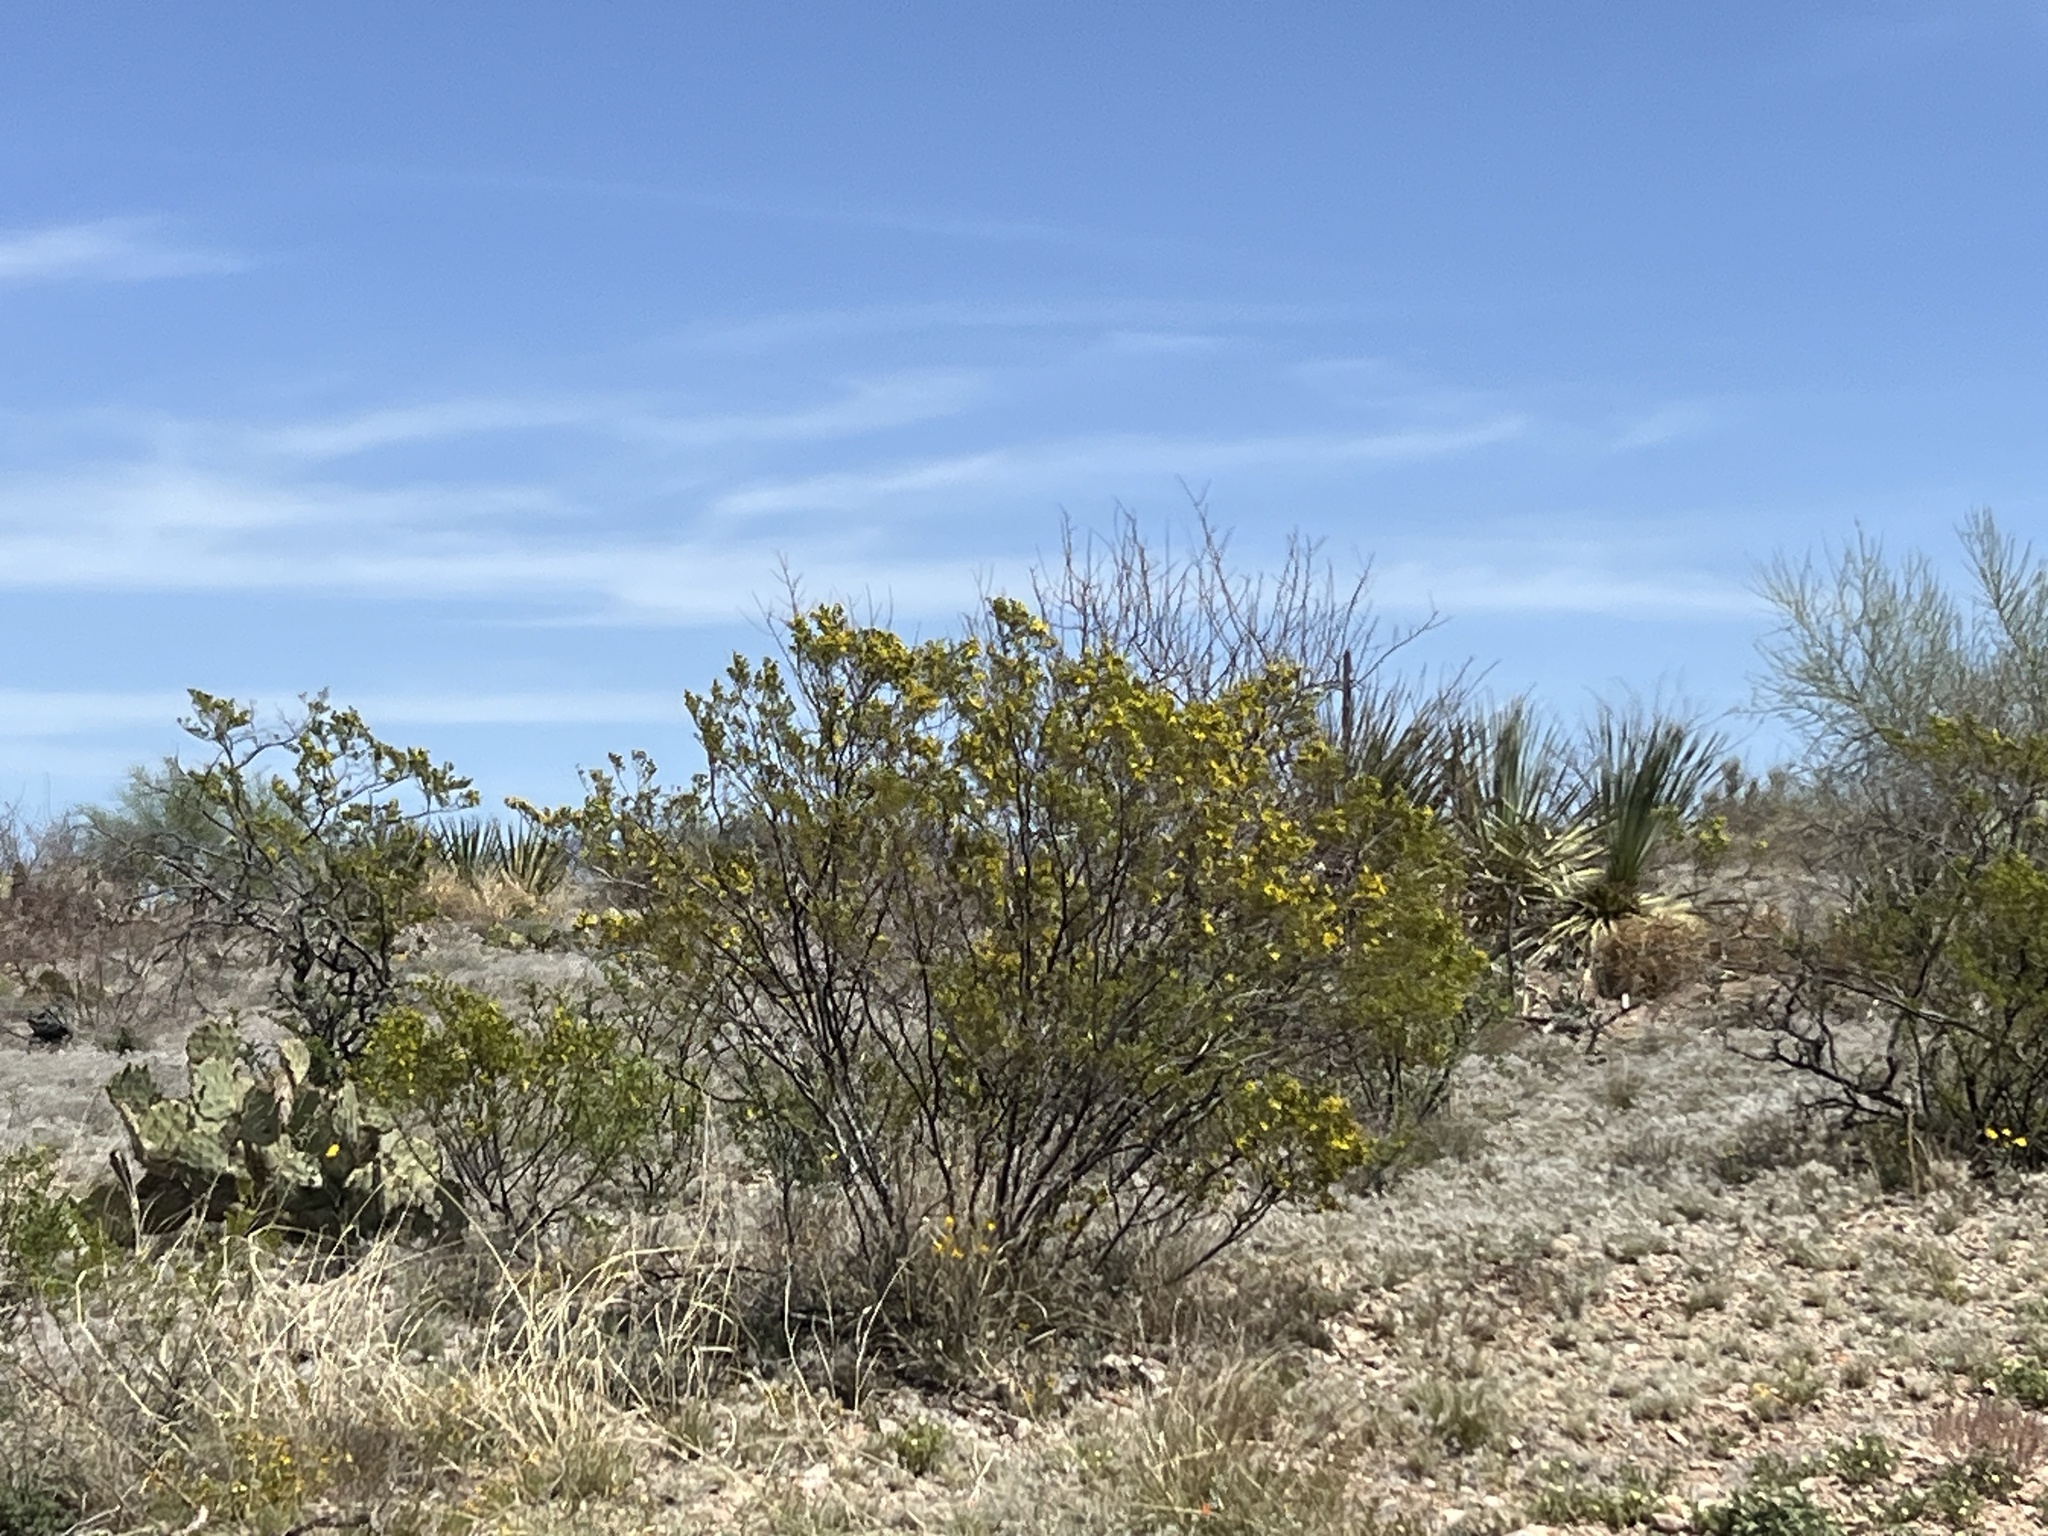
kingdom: Plantae
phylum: Tracheophyta
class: Magnoliopsida
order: Zygophyllales
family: Zygophyllaceae
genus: Larrea
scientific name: Larrea tridentata
